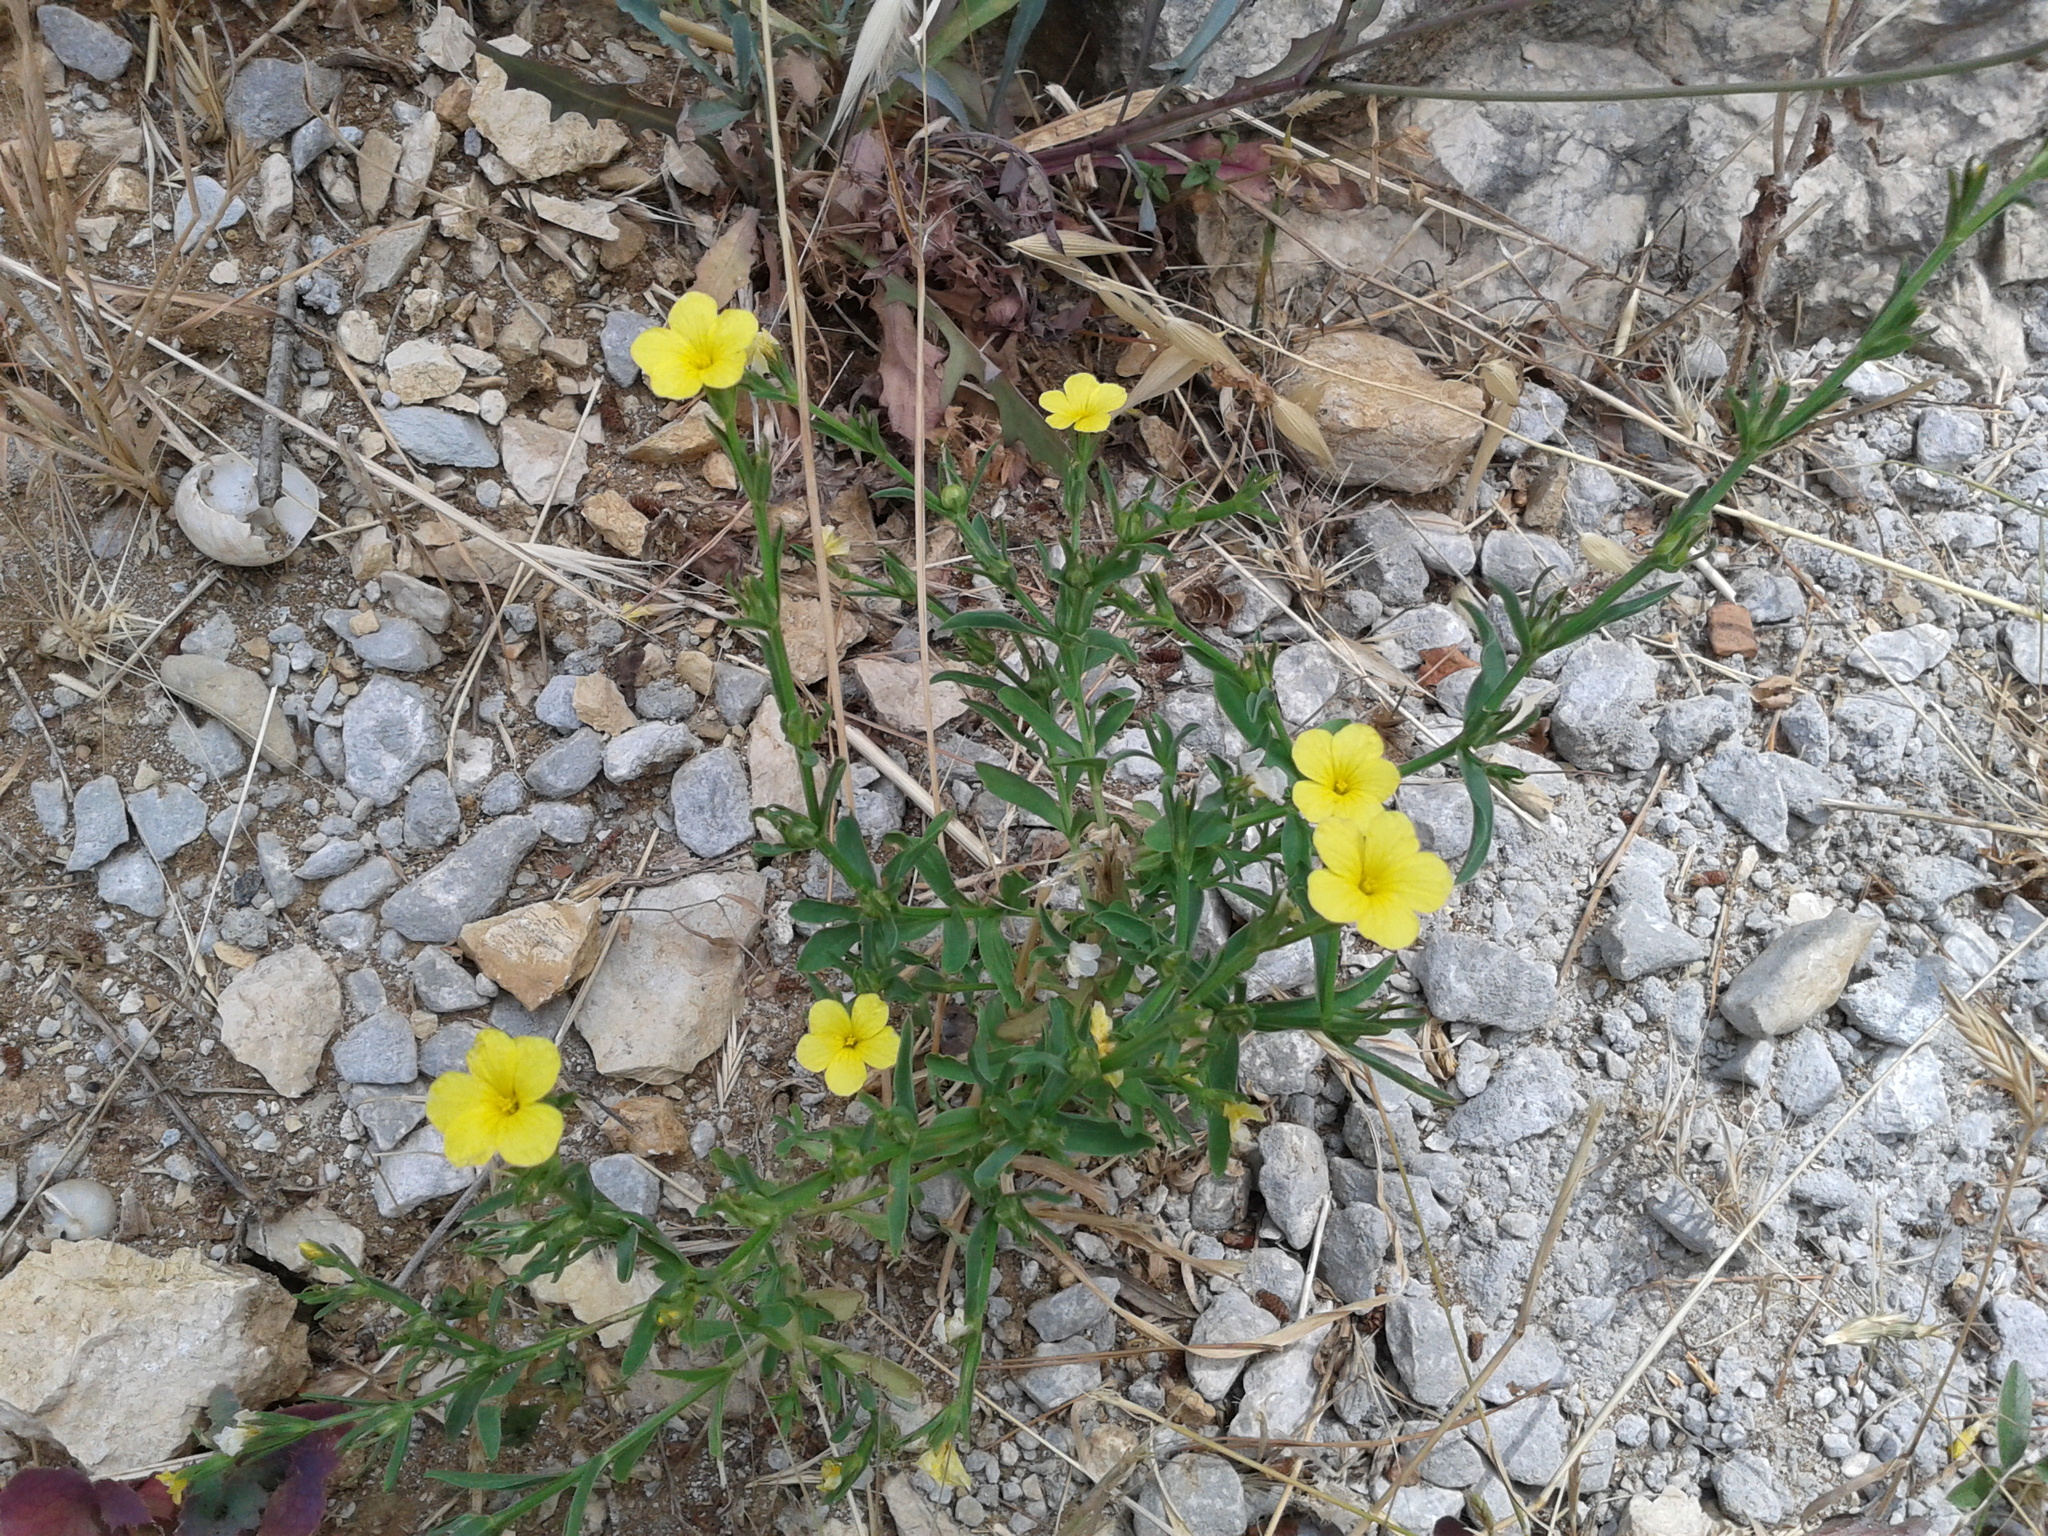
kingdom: Plantae
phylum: Tracheophyta
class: Magnoliopsida
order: Malpighiales
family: Linaceae
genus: Linum
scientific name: Linum nodiflorum
